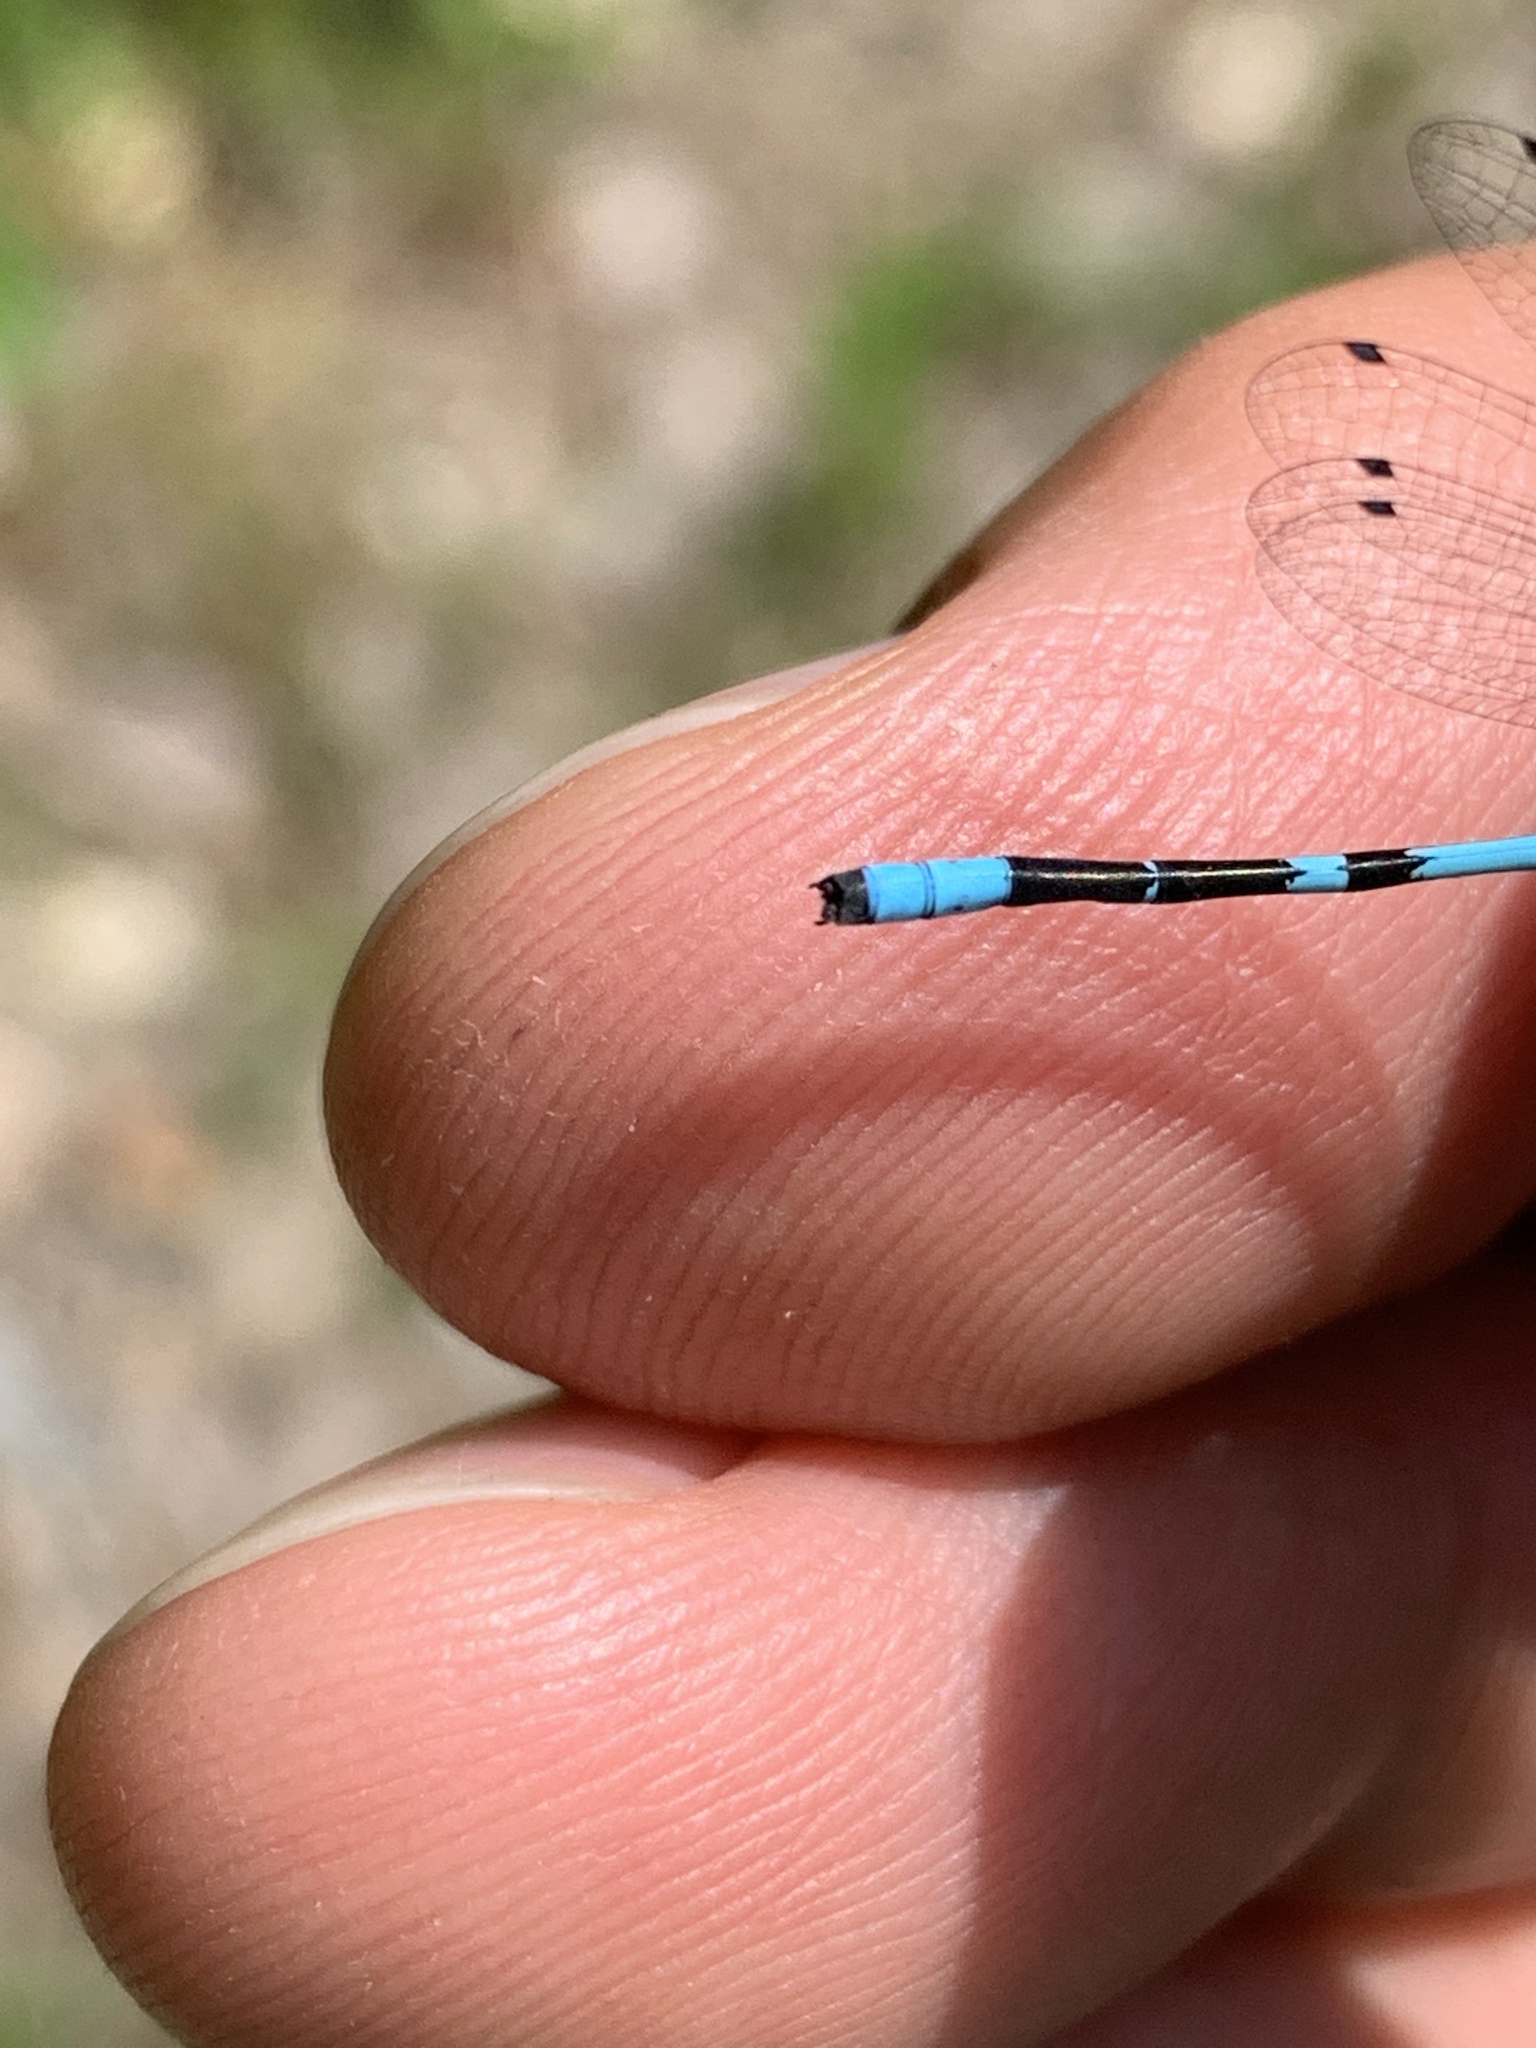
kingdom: Animalia
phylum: Arthropoda
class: Insecta
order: Odonata
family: Coenagrionidae
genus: Enallagma
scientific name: Enallagma hageni
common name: Hagen's bluet
